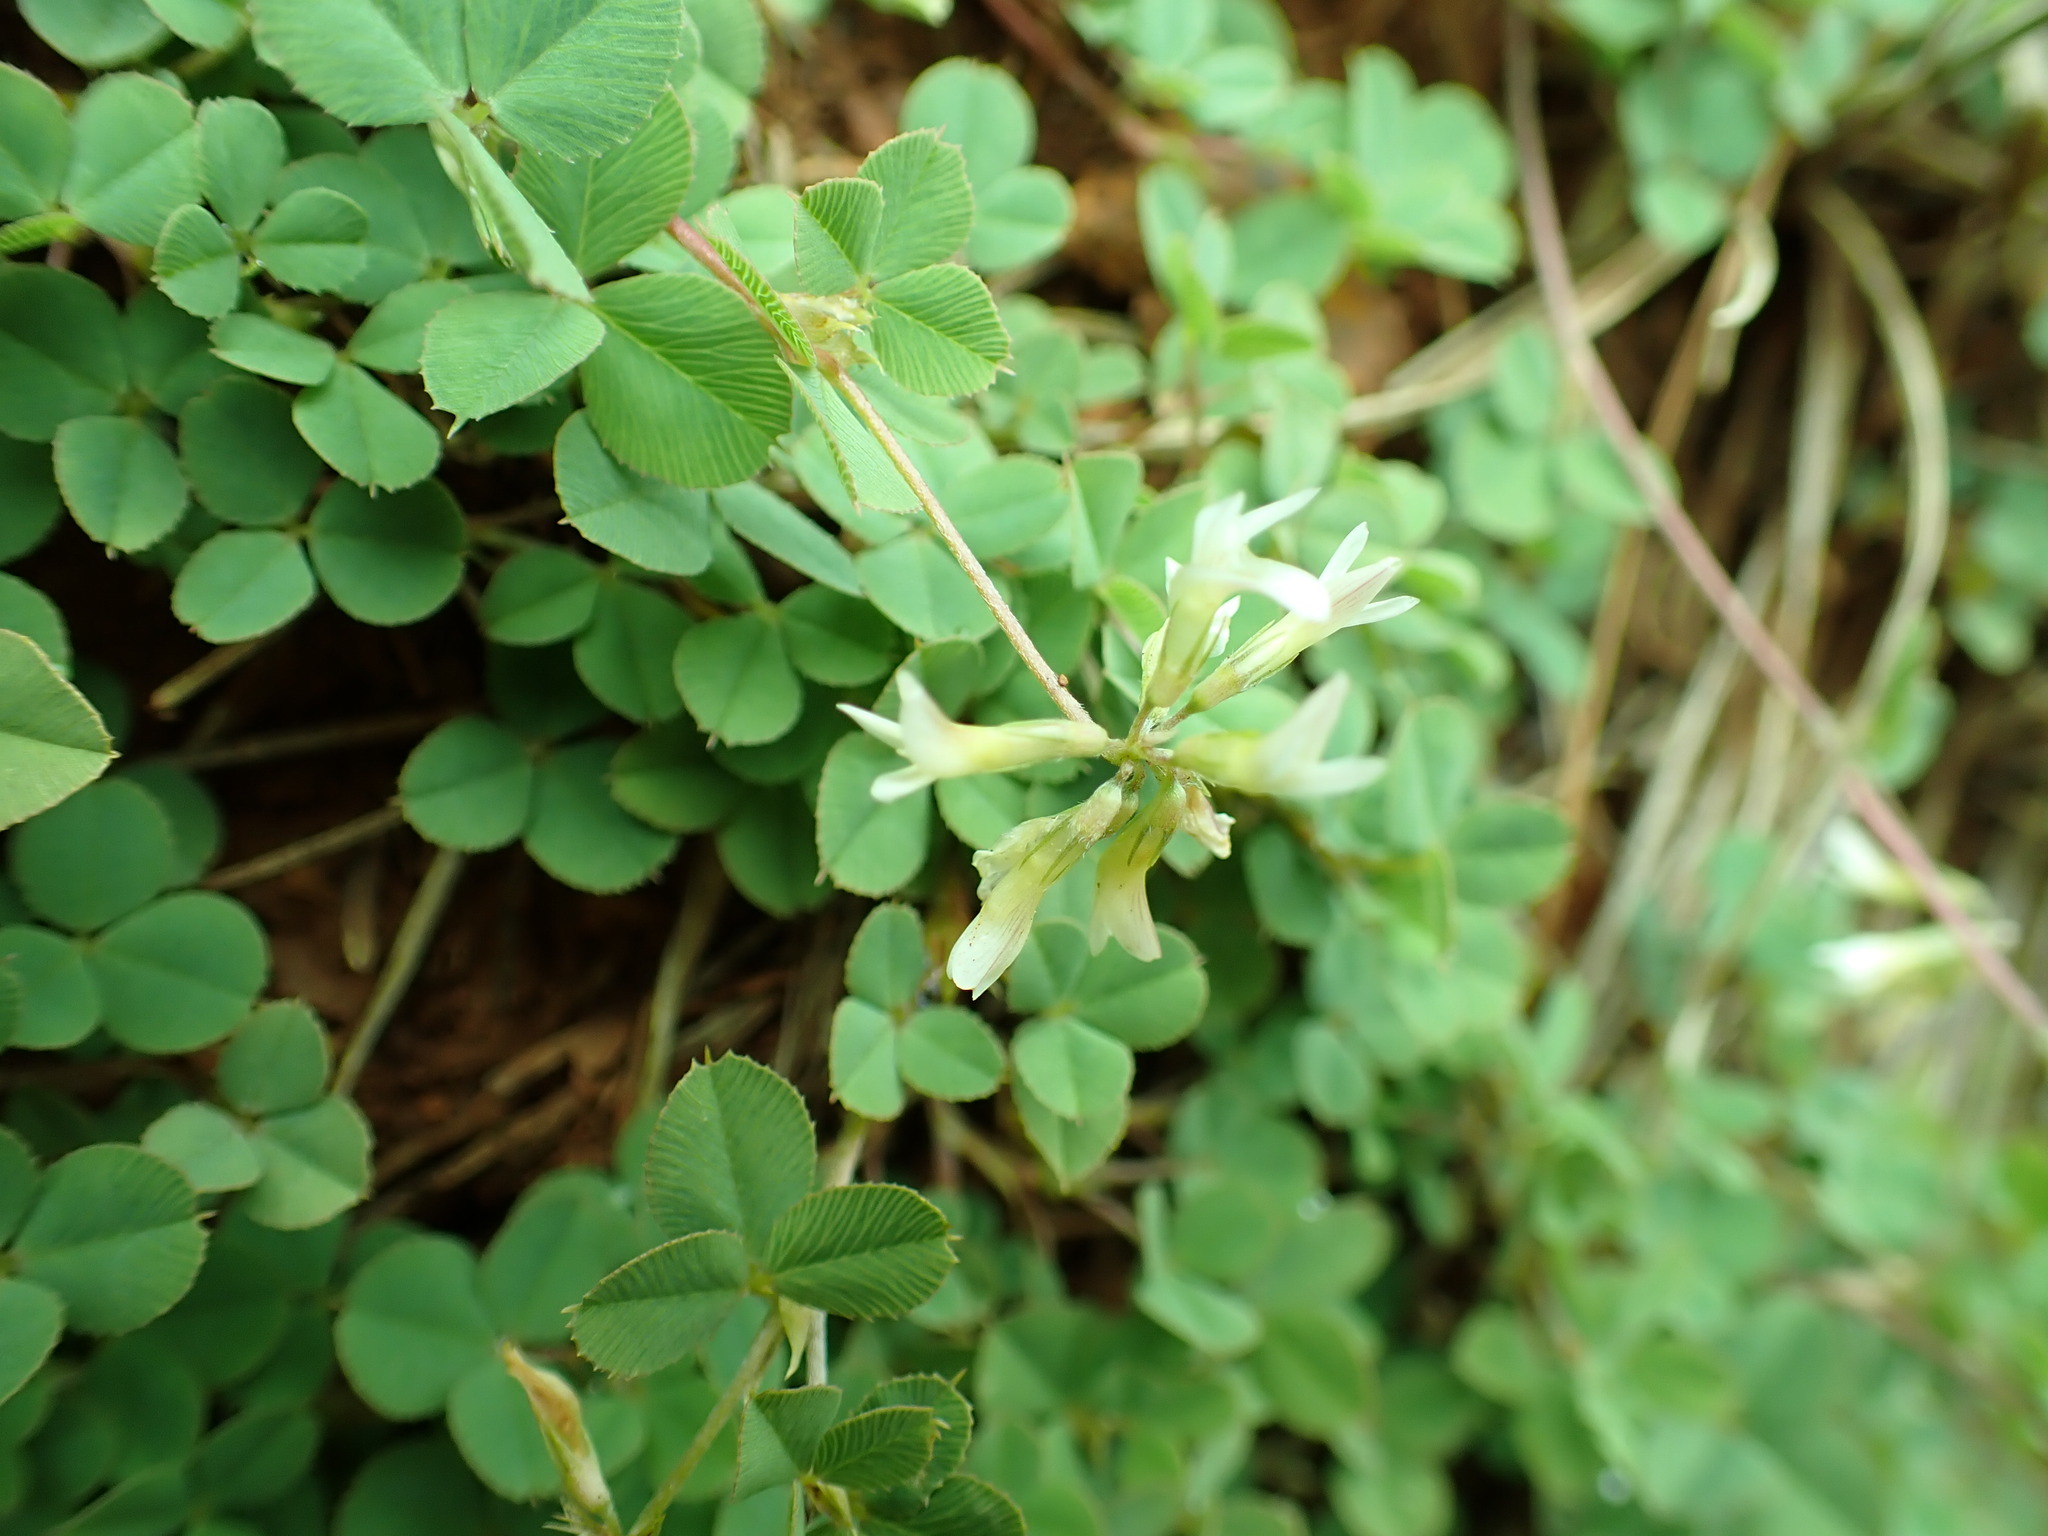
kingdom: Plantae
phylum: Tracheophyta
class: Magnoliopsida
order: Fabales
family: Fabaceae
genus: Trifolium
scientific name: Trifolium breweri
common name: Forest clover
